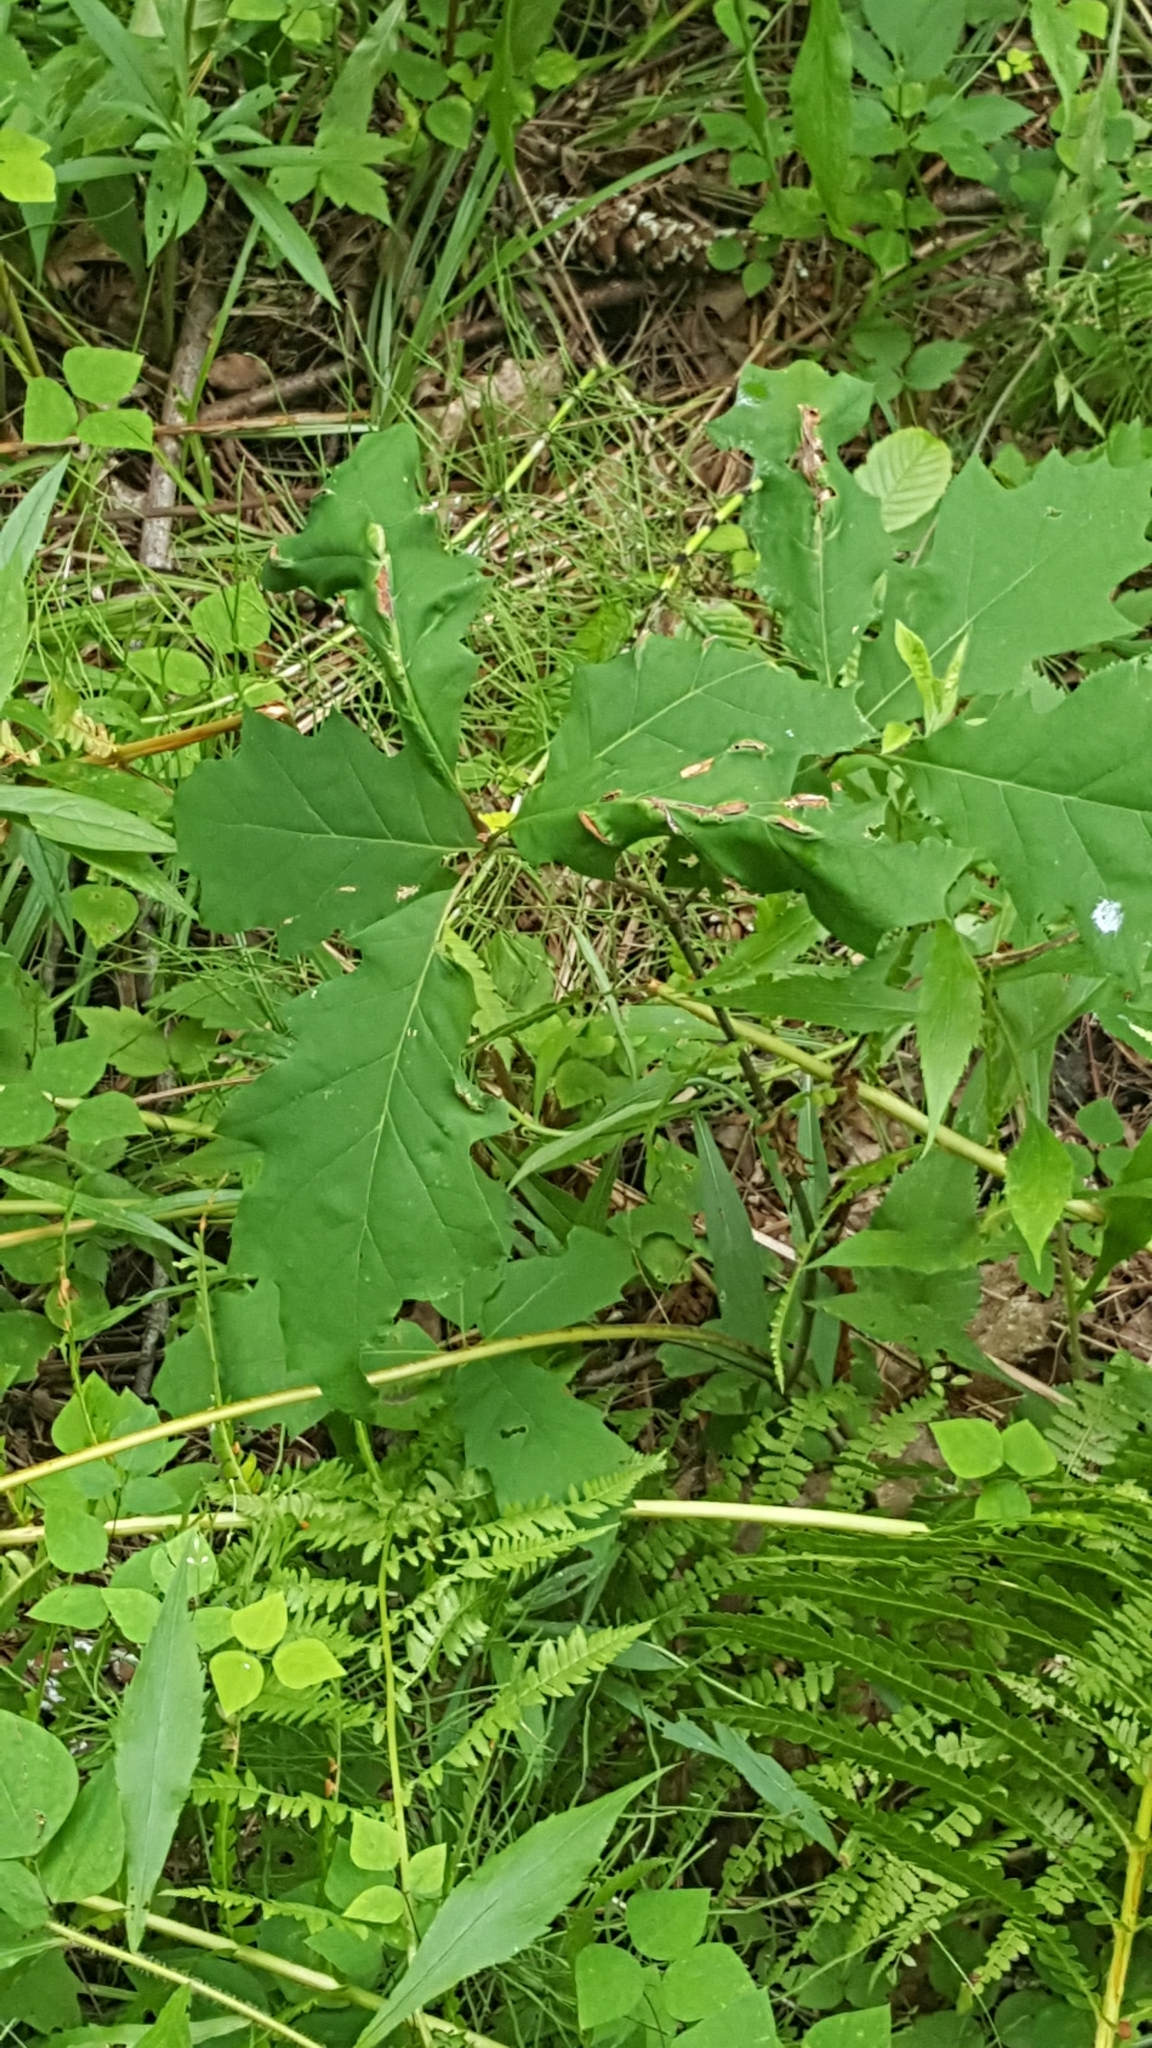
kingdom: Plantae
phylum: Tracheophyta
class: Magnoliopsida
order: Fagales
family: Fagaceae
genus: Quercus
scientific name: Quercus rubra
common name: Red oak
